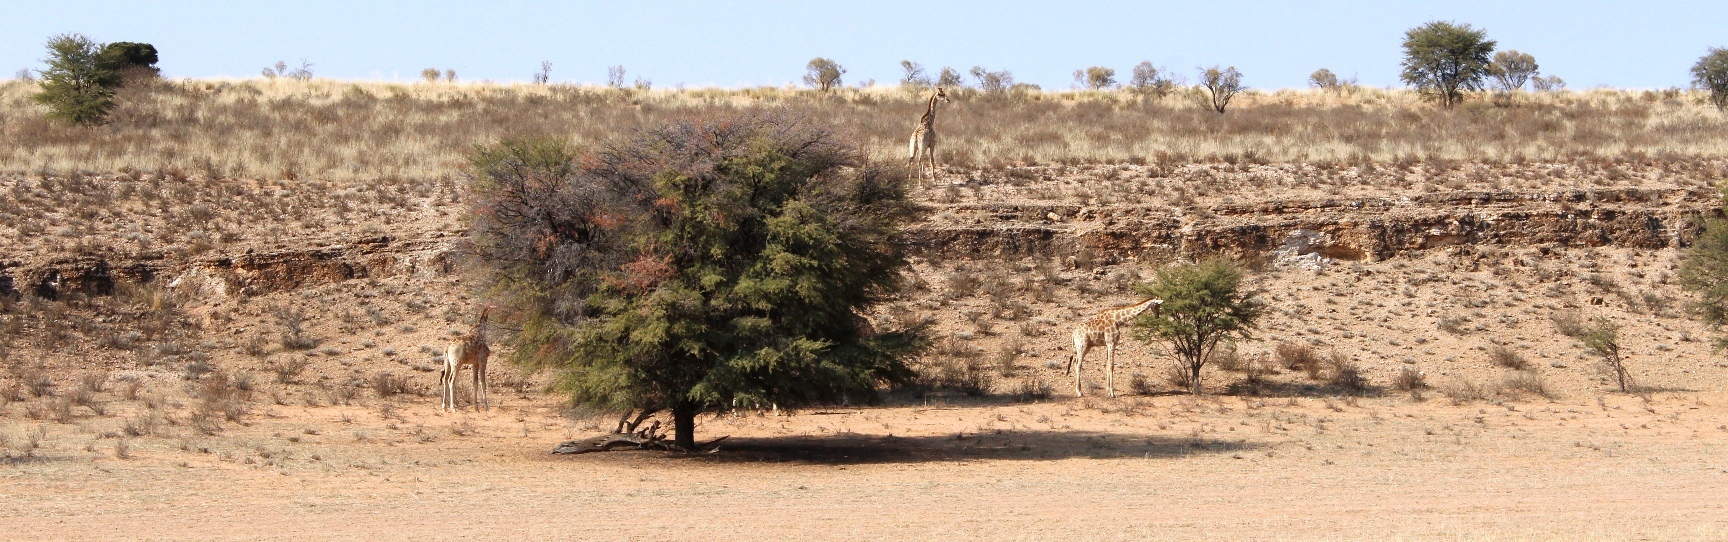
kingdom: Animalia
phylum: Chordata
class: Mammalia
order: Artiodactyla
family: Giraffidae
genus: Giraffa
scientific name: Giraffa giraffa
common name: Southern giraffe
